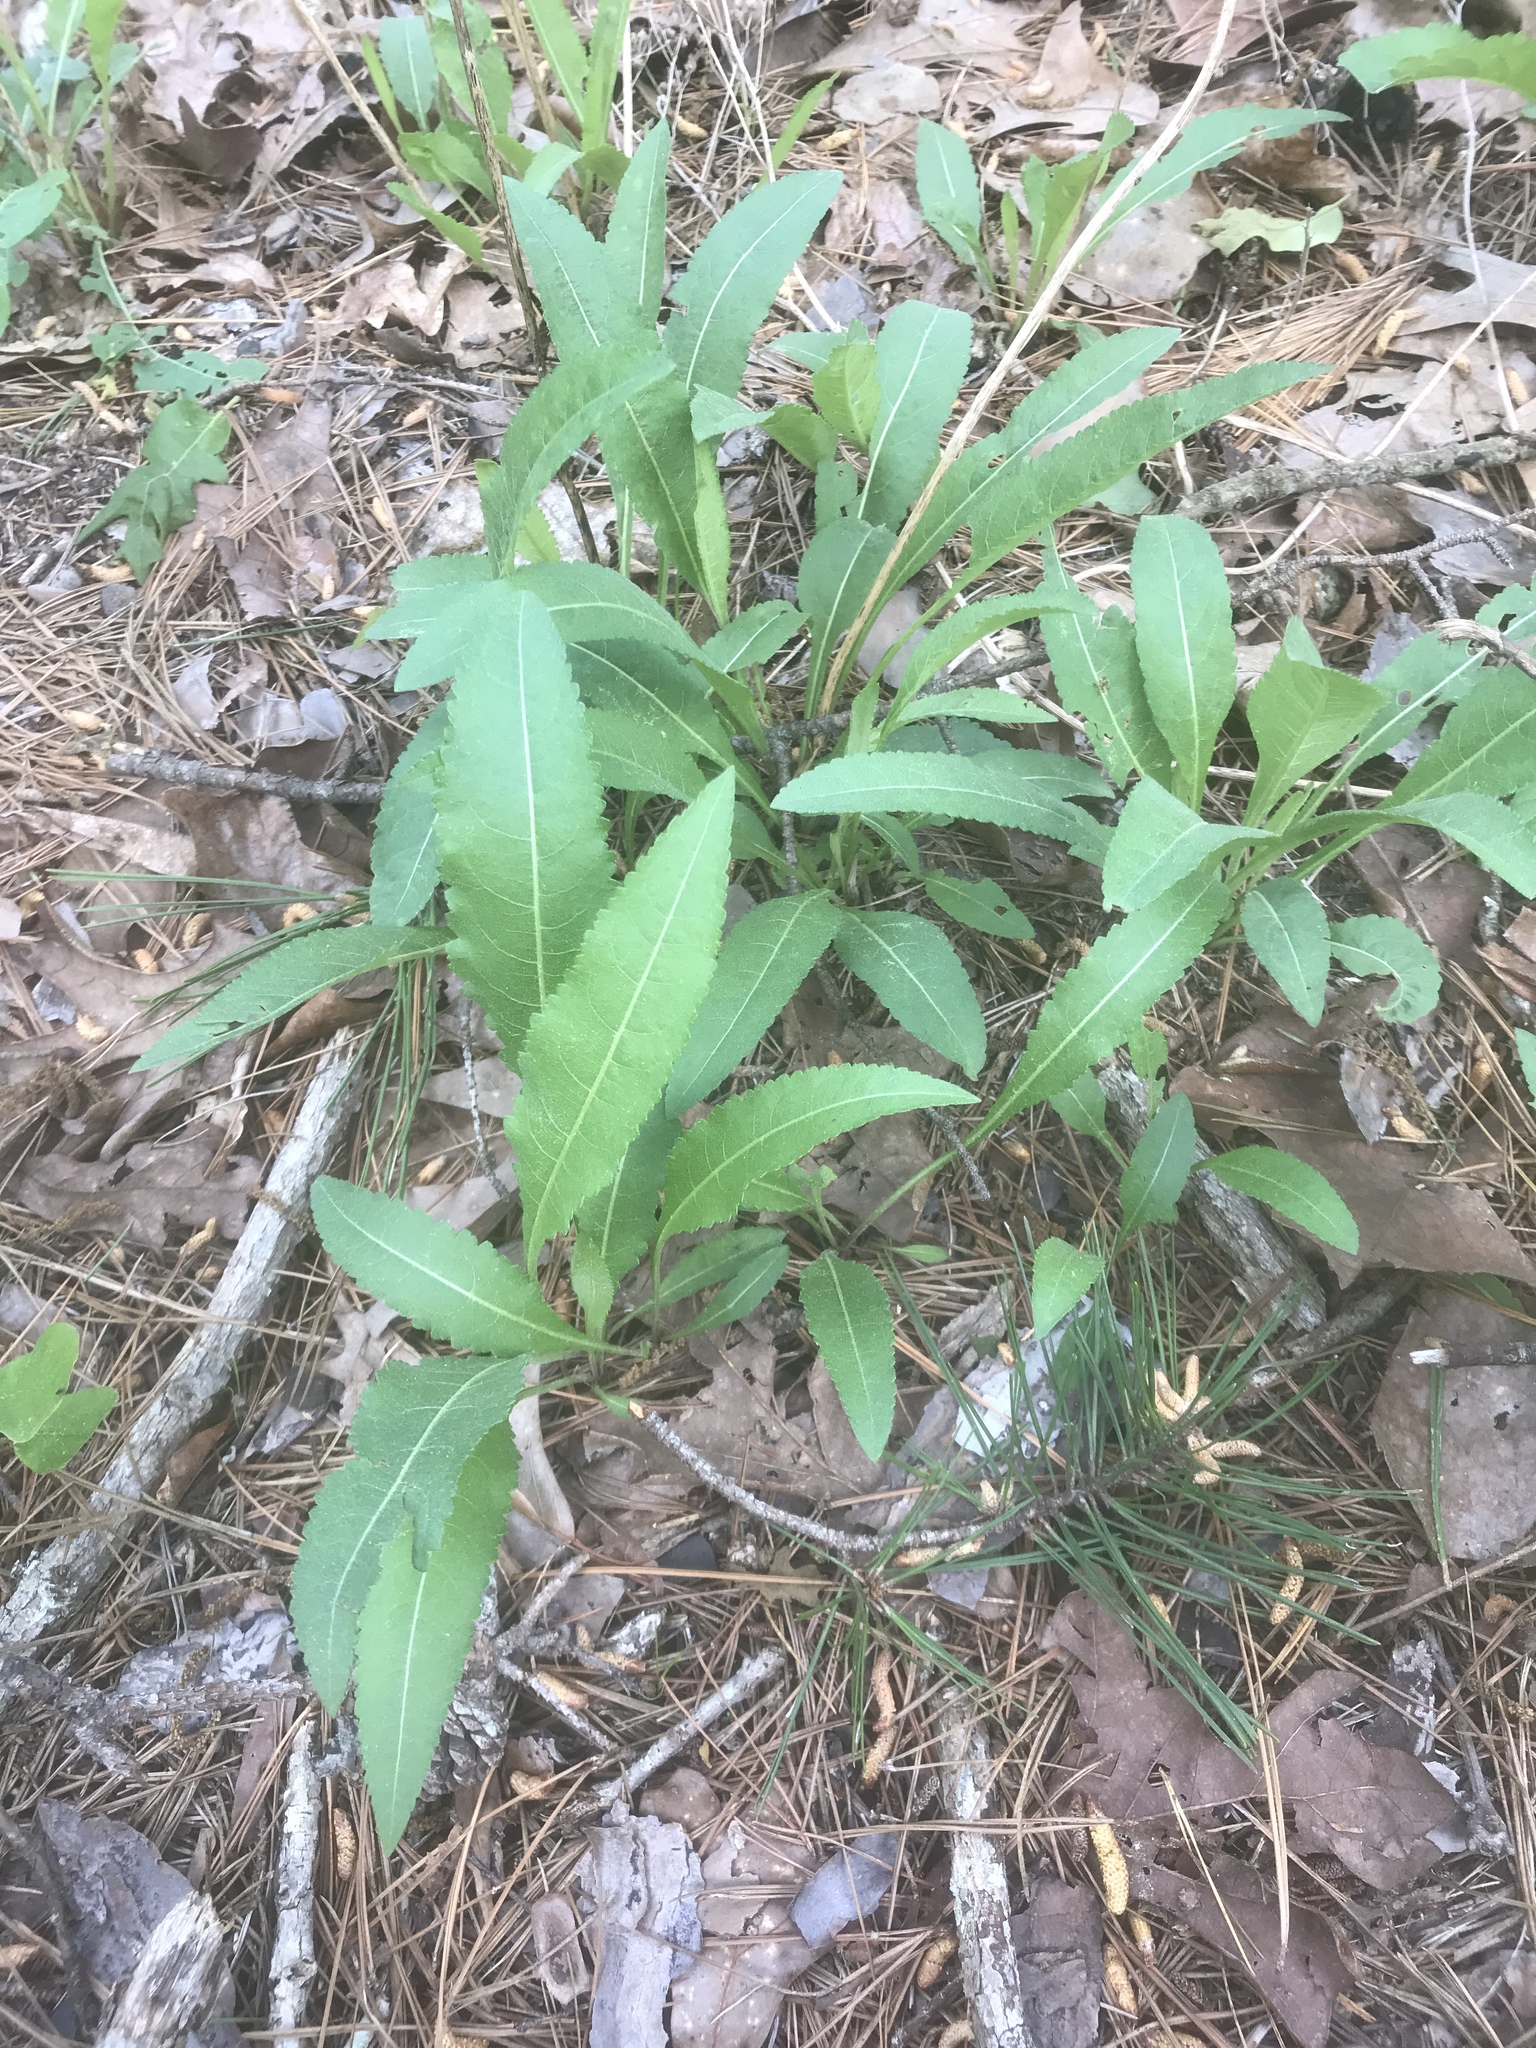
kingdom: Plantae
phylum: Tracheophyta
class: Magnoliopsida
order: Asterales
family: Asteraceae
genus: Parthenium
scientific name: Parthenium integrifolium
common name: American feverfew
